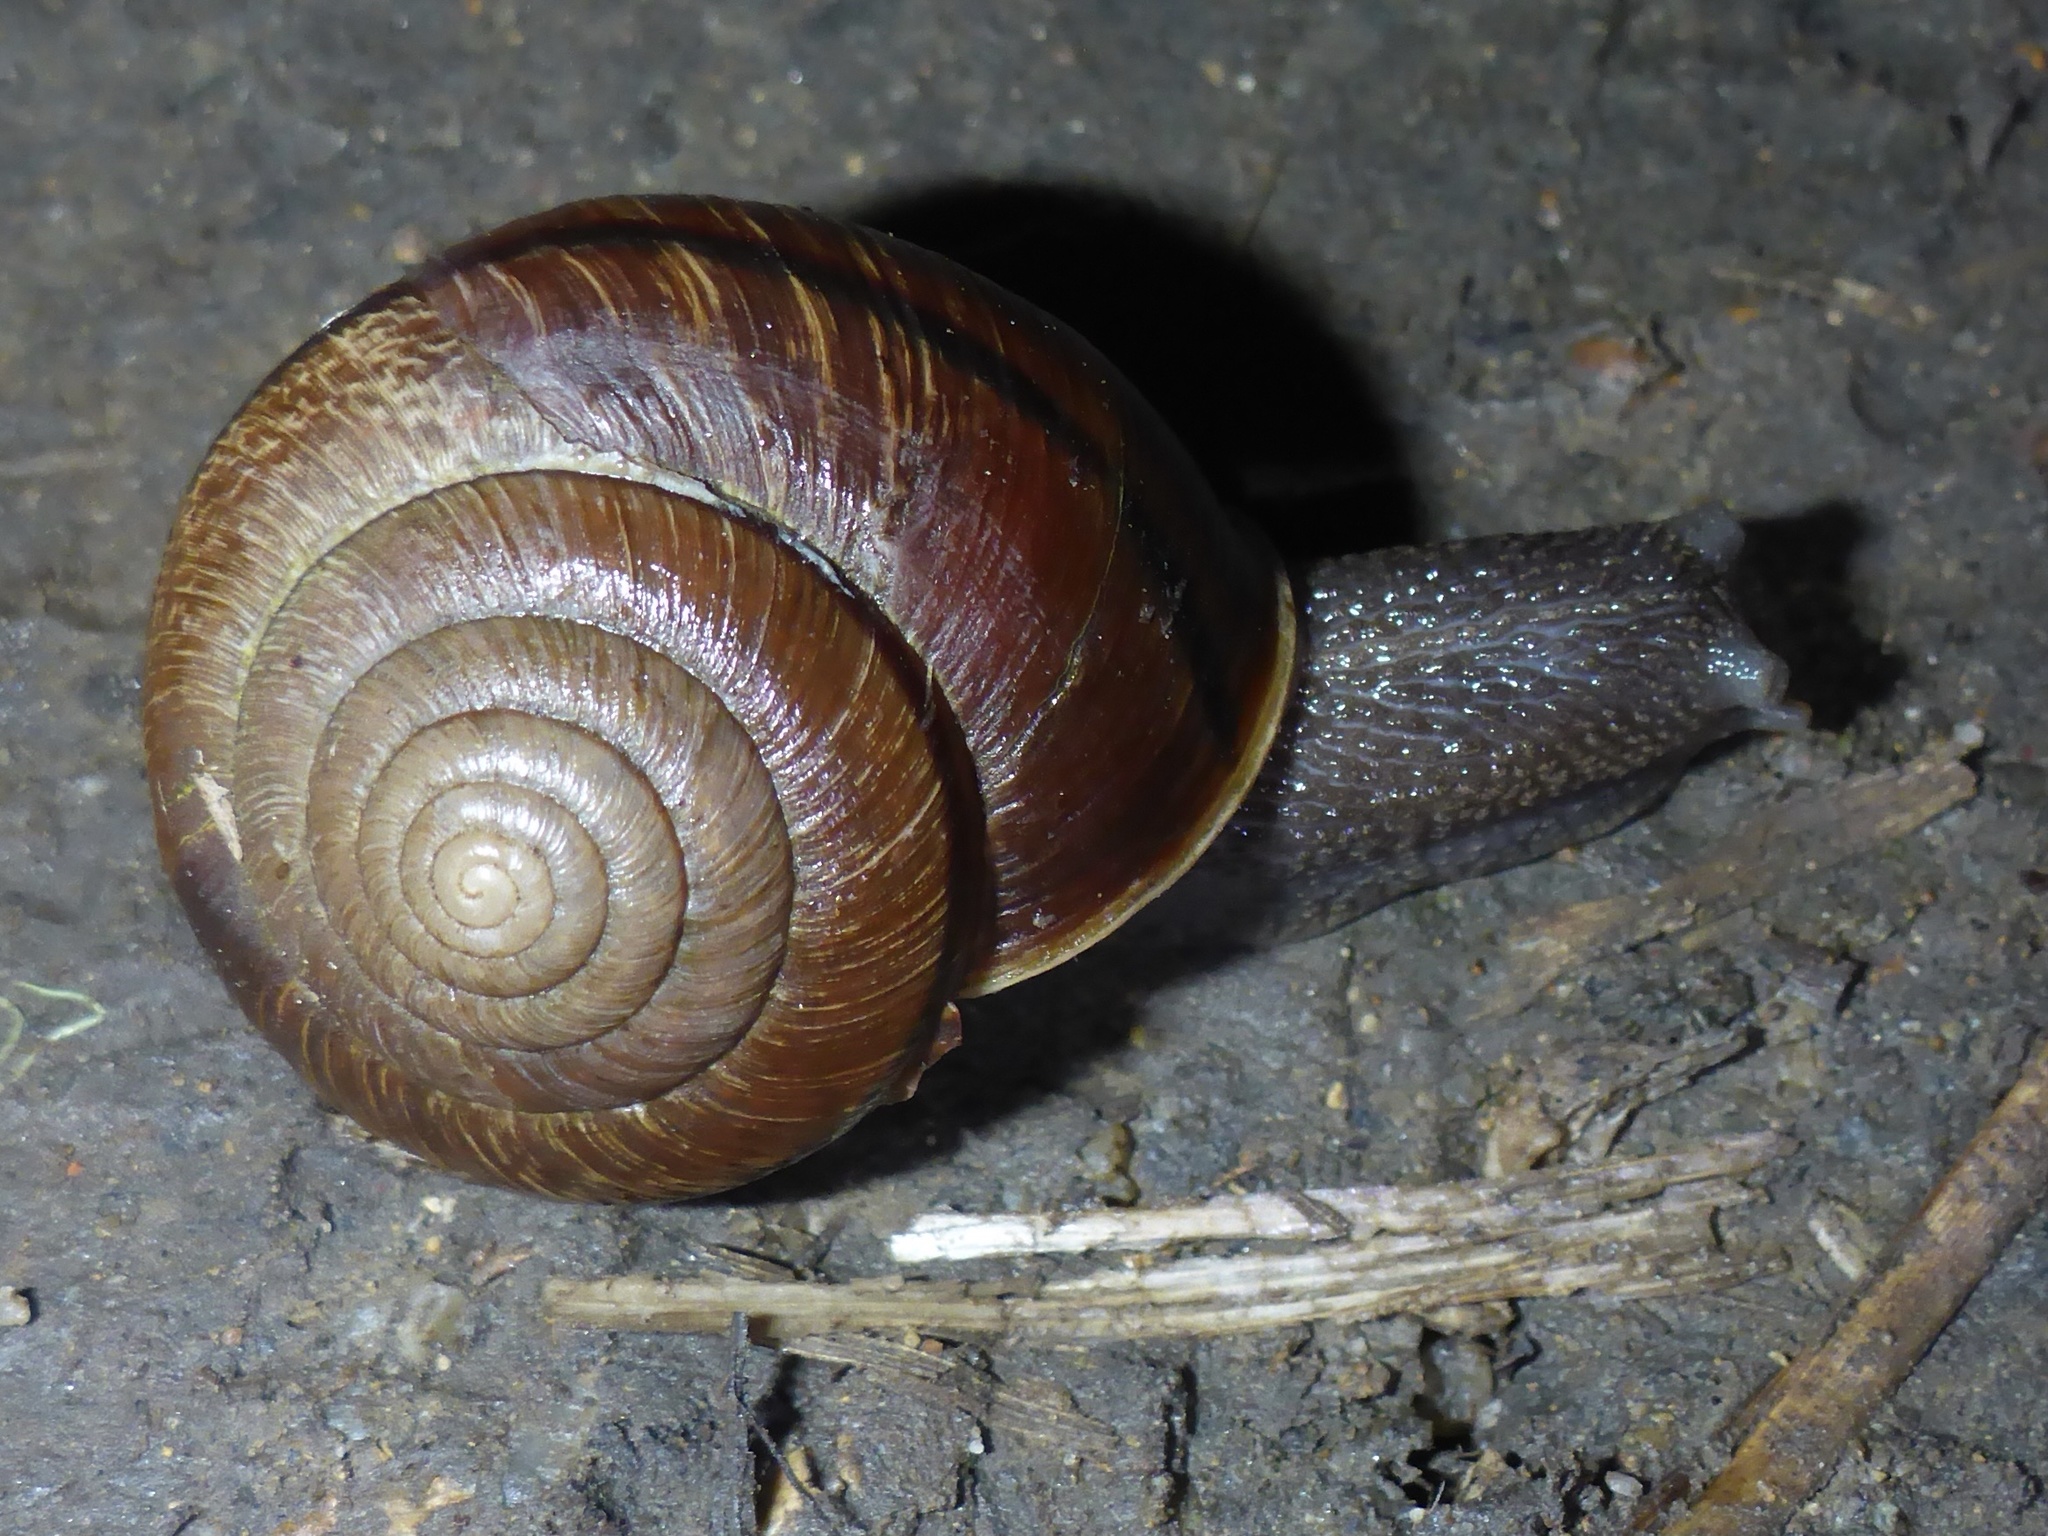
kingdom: Animalia
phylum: Mollusca
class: Gastropoda
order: Stylommatophora
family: Xanthonychidae
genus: Helminthoglypta
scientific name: Helminthoglypta arrosa
